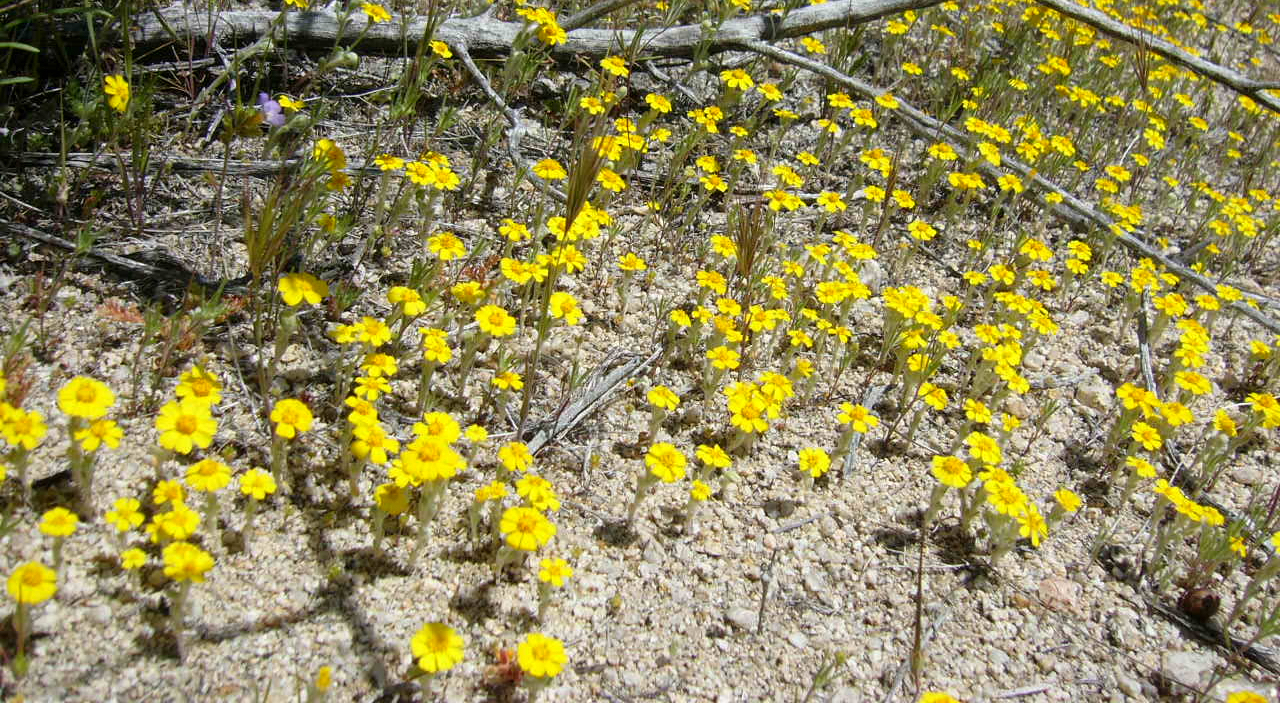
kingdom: Plantae
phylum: Tracheophyta
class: Magnoliopsida
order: Asterales
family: Asteraceae
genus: Eriophyllum
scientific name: Eriophyllum wallacei
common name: Wallace's woolly daisy
